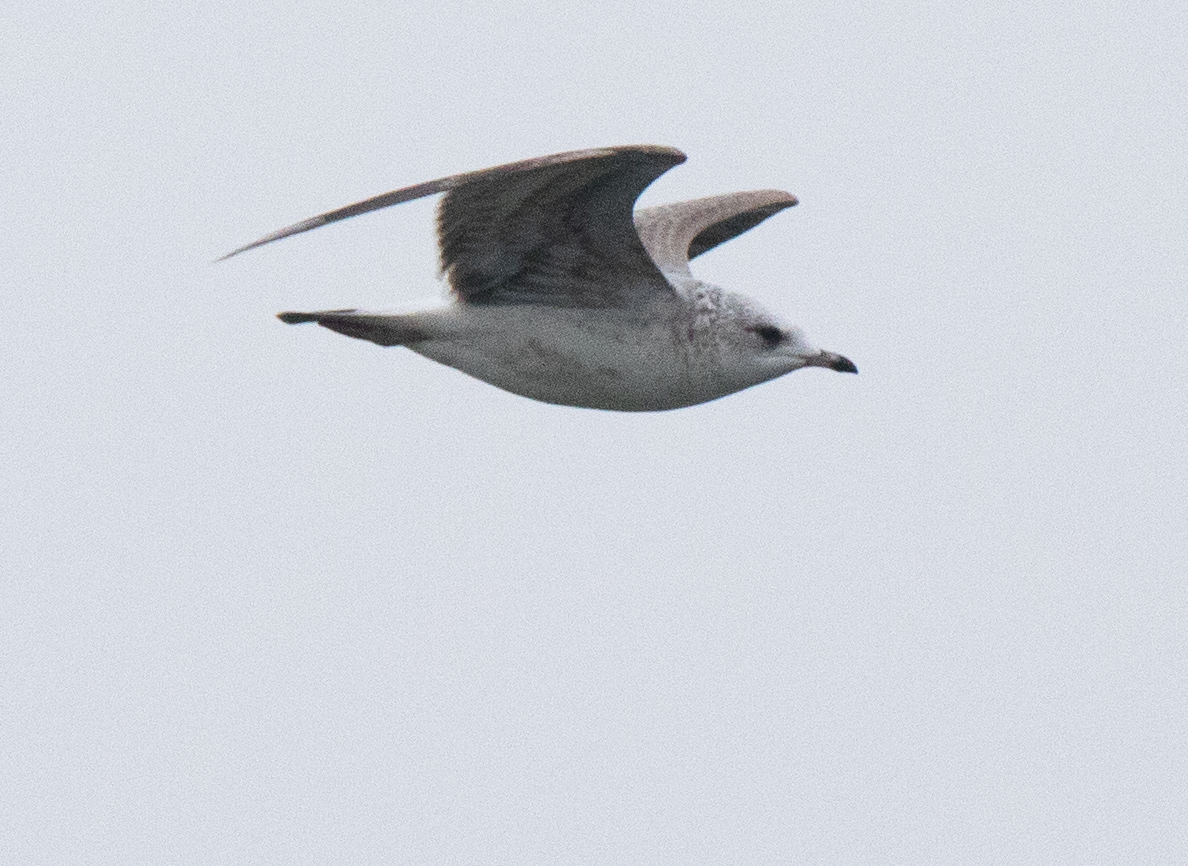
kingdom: Animalia
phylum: Chordata
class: Aves
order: Charadriiformes
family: Laridae
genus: Larus
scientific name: Larus canus
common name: Mew gull
